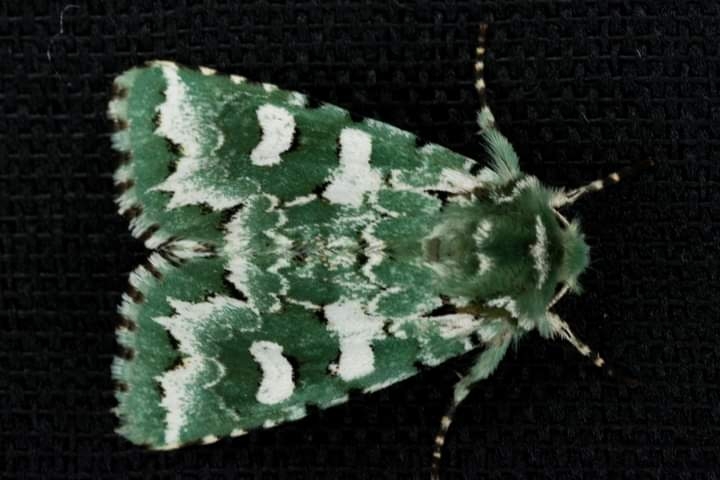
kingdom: Animalia
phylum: Arthropoda
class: Insecta
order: Lepidoptera
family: Noctuidae
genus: Centrochlora
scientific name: Centrochlora esmeralda
